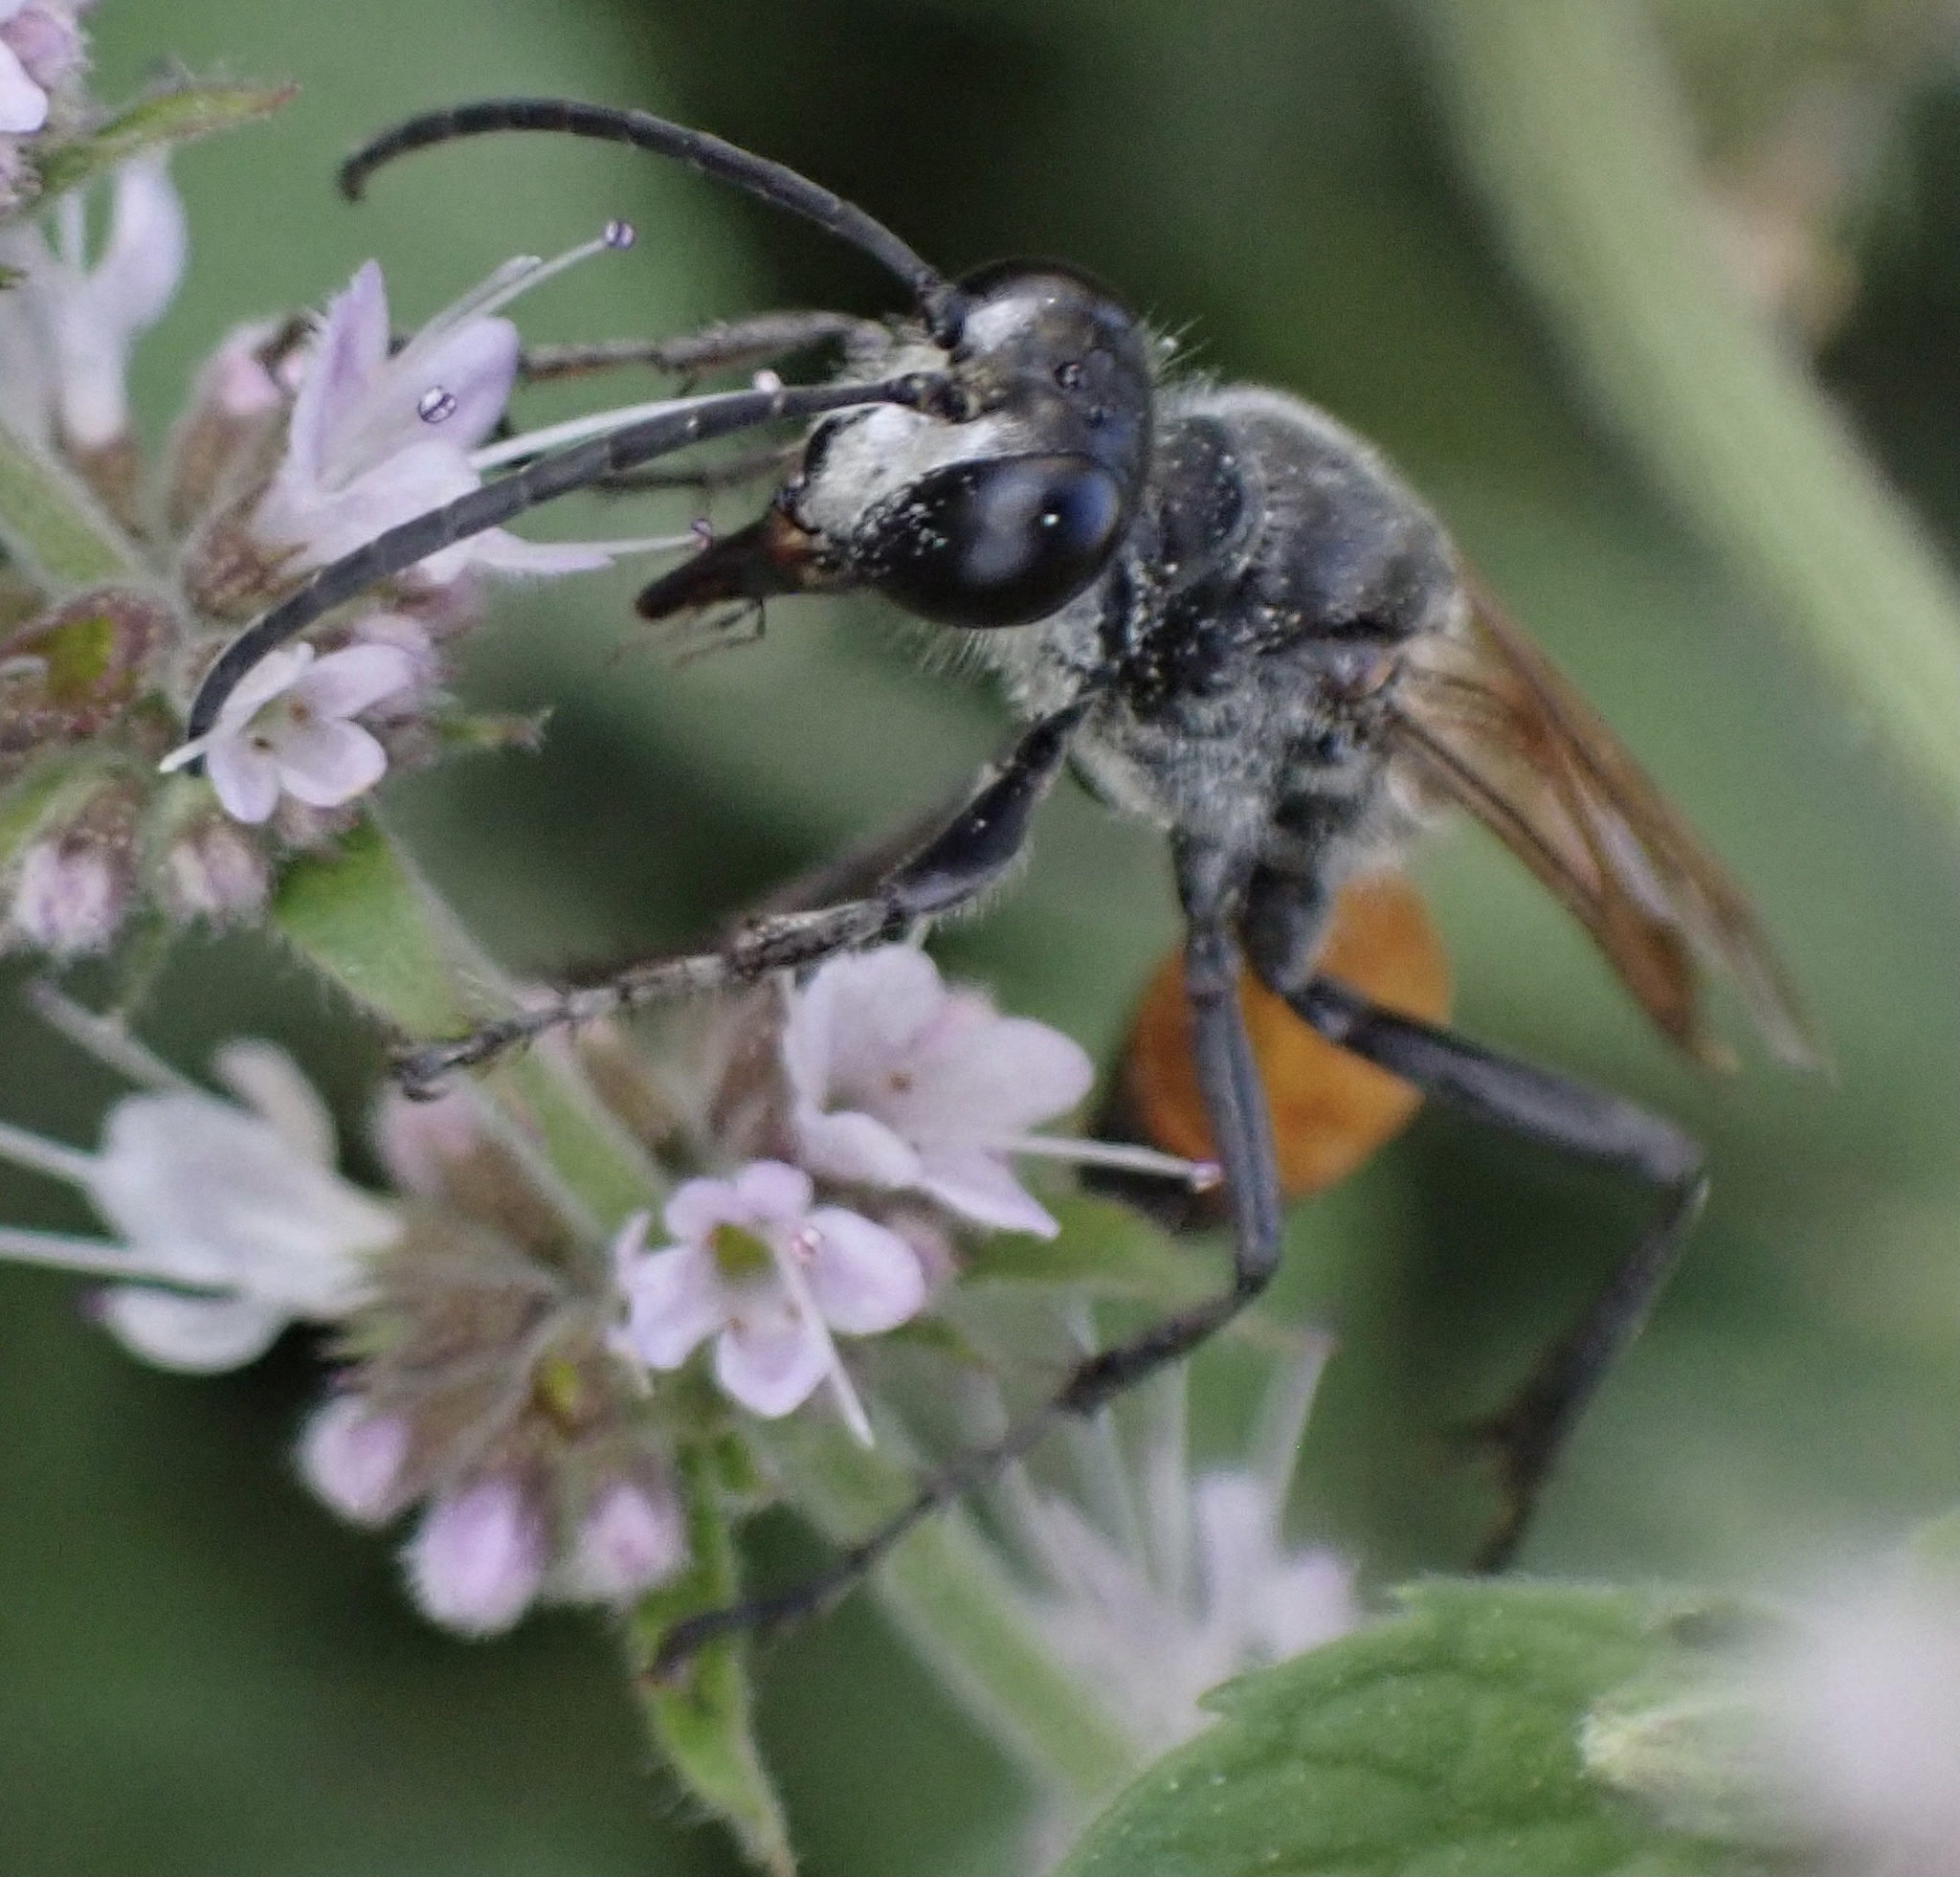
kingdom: Animalia
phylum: Arthropoda
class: Insecta
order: Hymenoptera
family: Sphecidae
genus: Sphex
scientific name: Sphex funerarius
